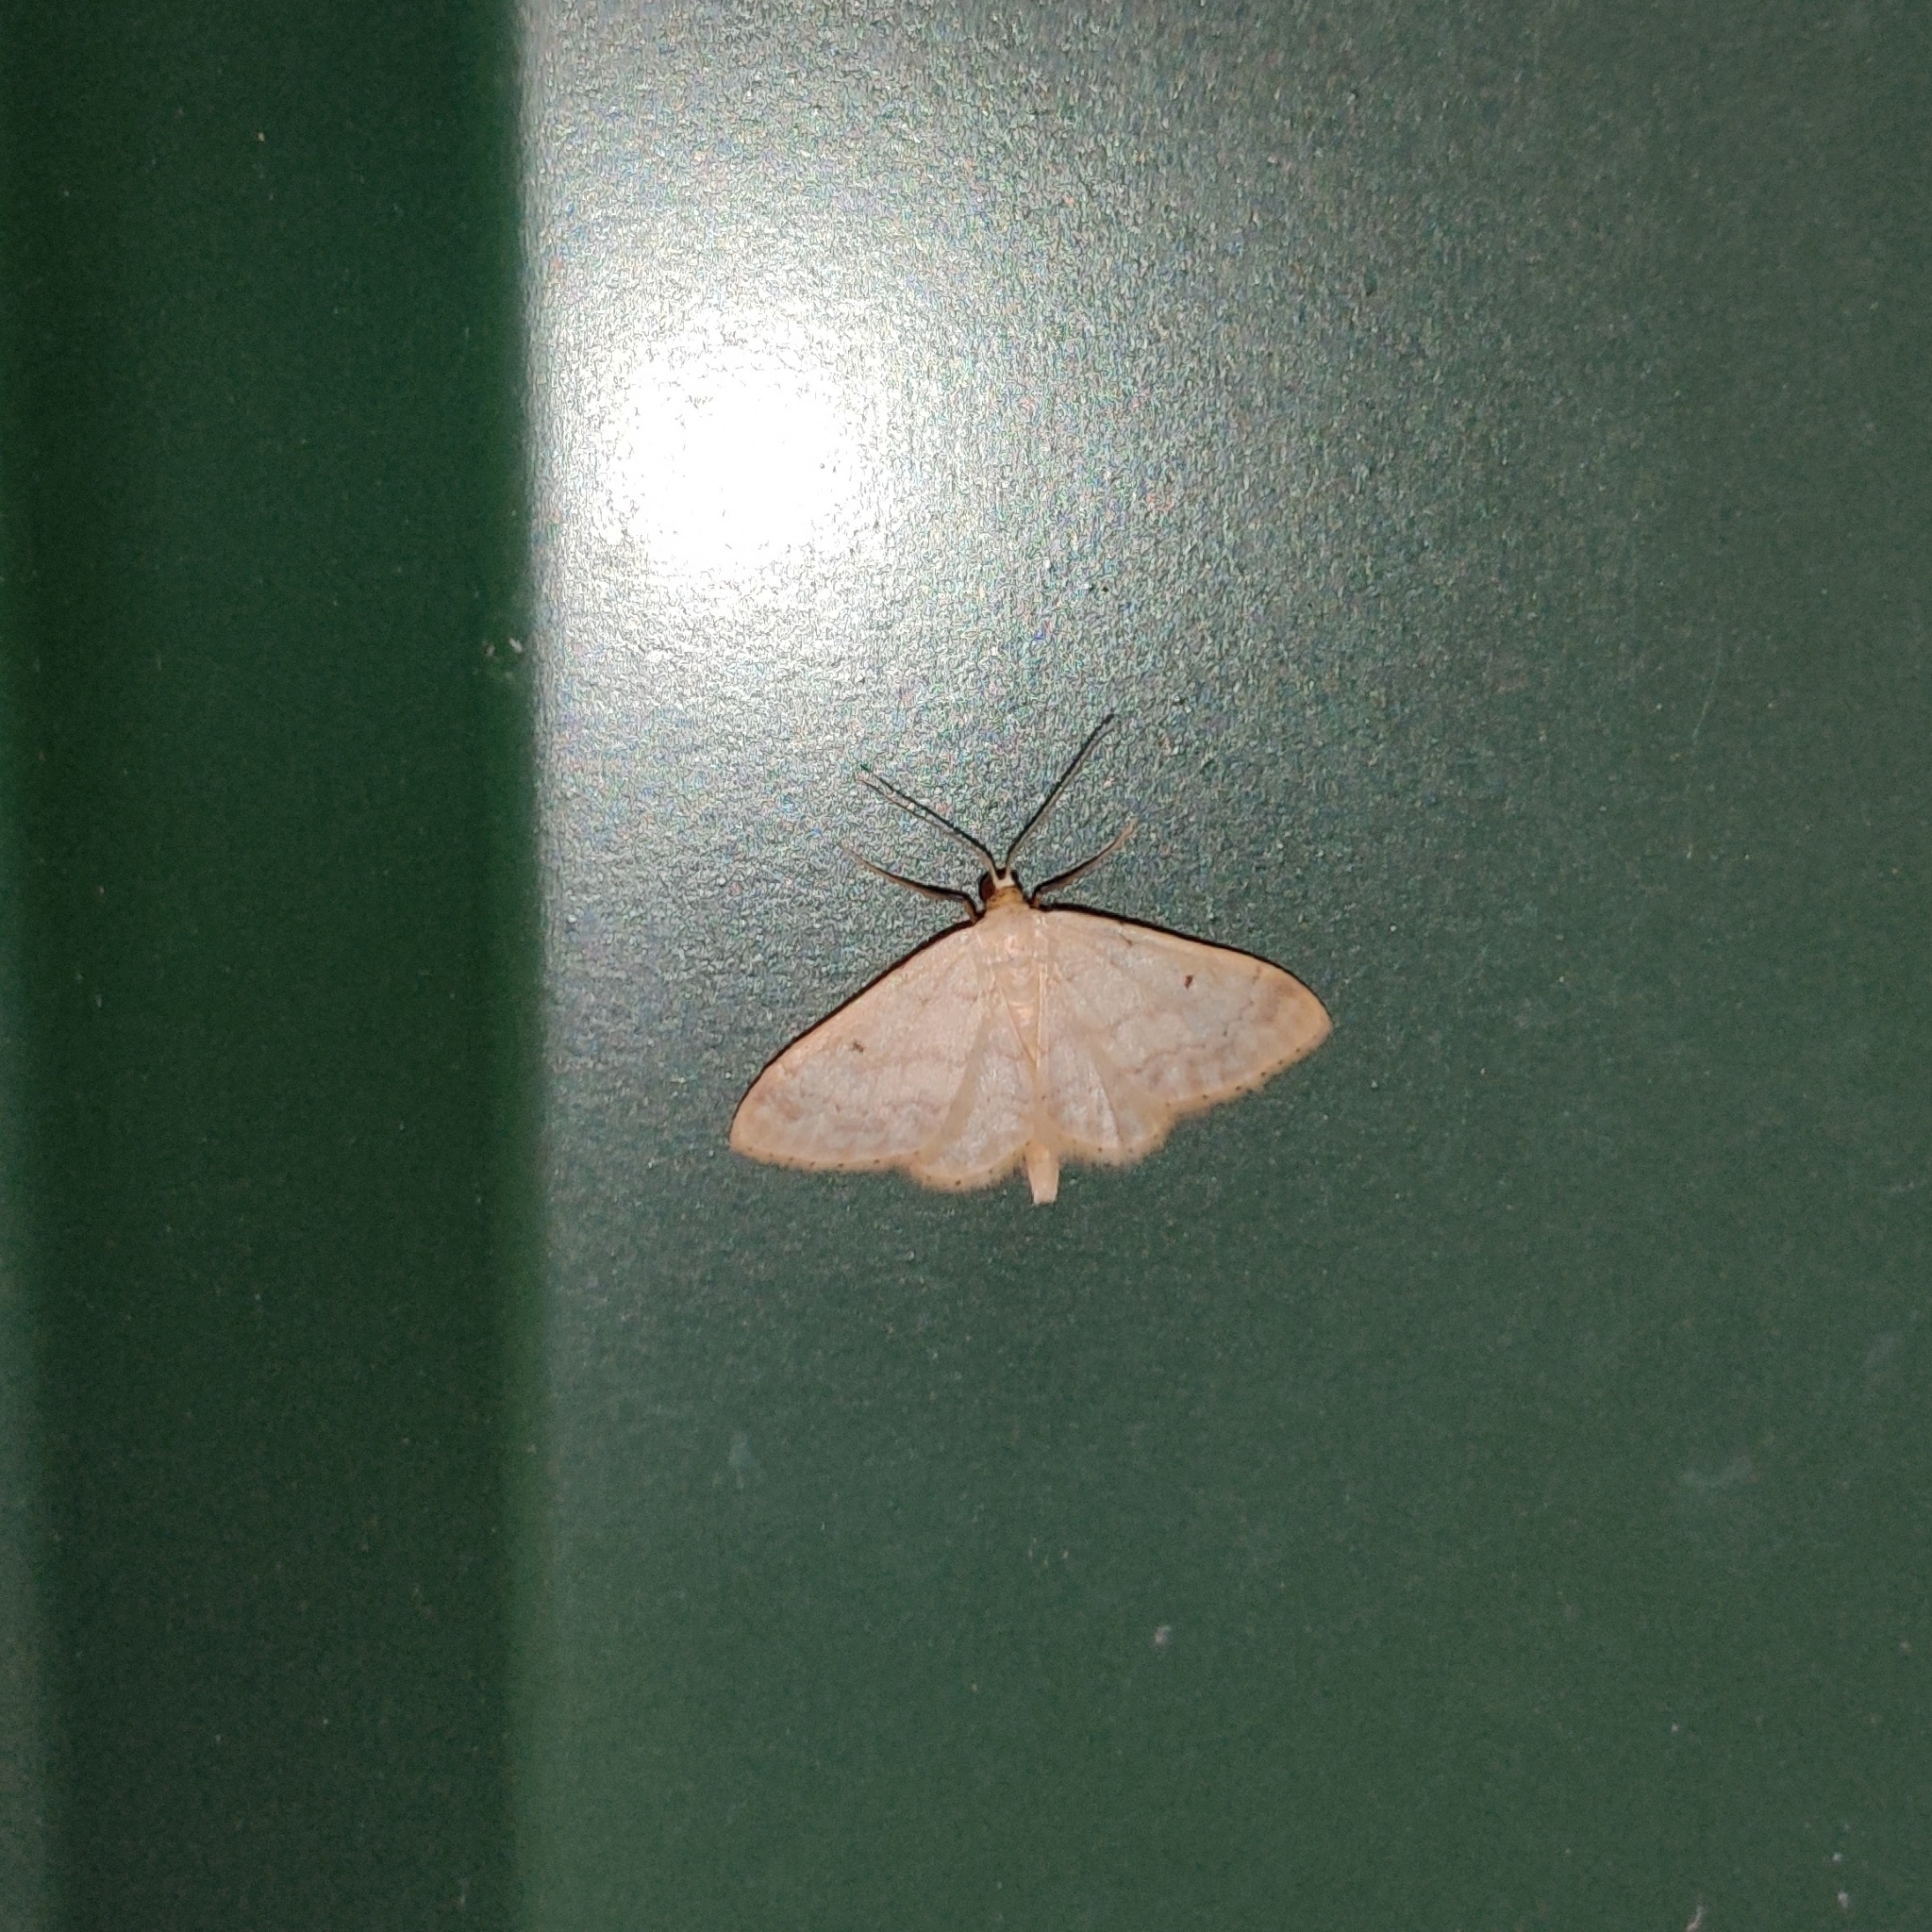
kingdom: Animalia
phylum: Arthropoda
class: Insecta
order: Lepidoptera
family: Geometridae
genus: Idaea
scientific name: Idaea biselata
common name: Small fan-footed wave
